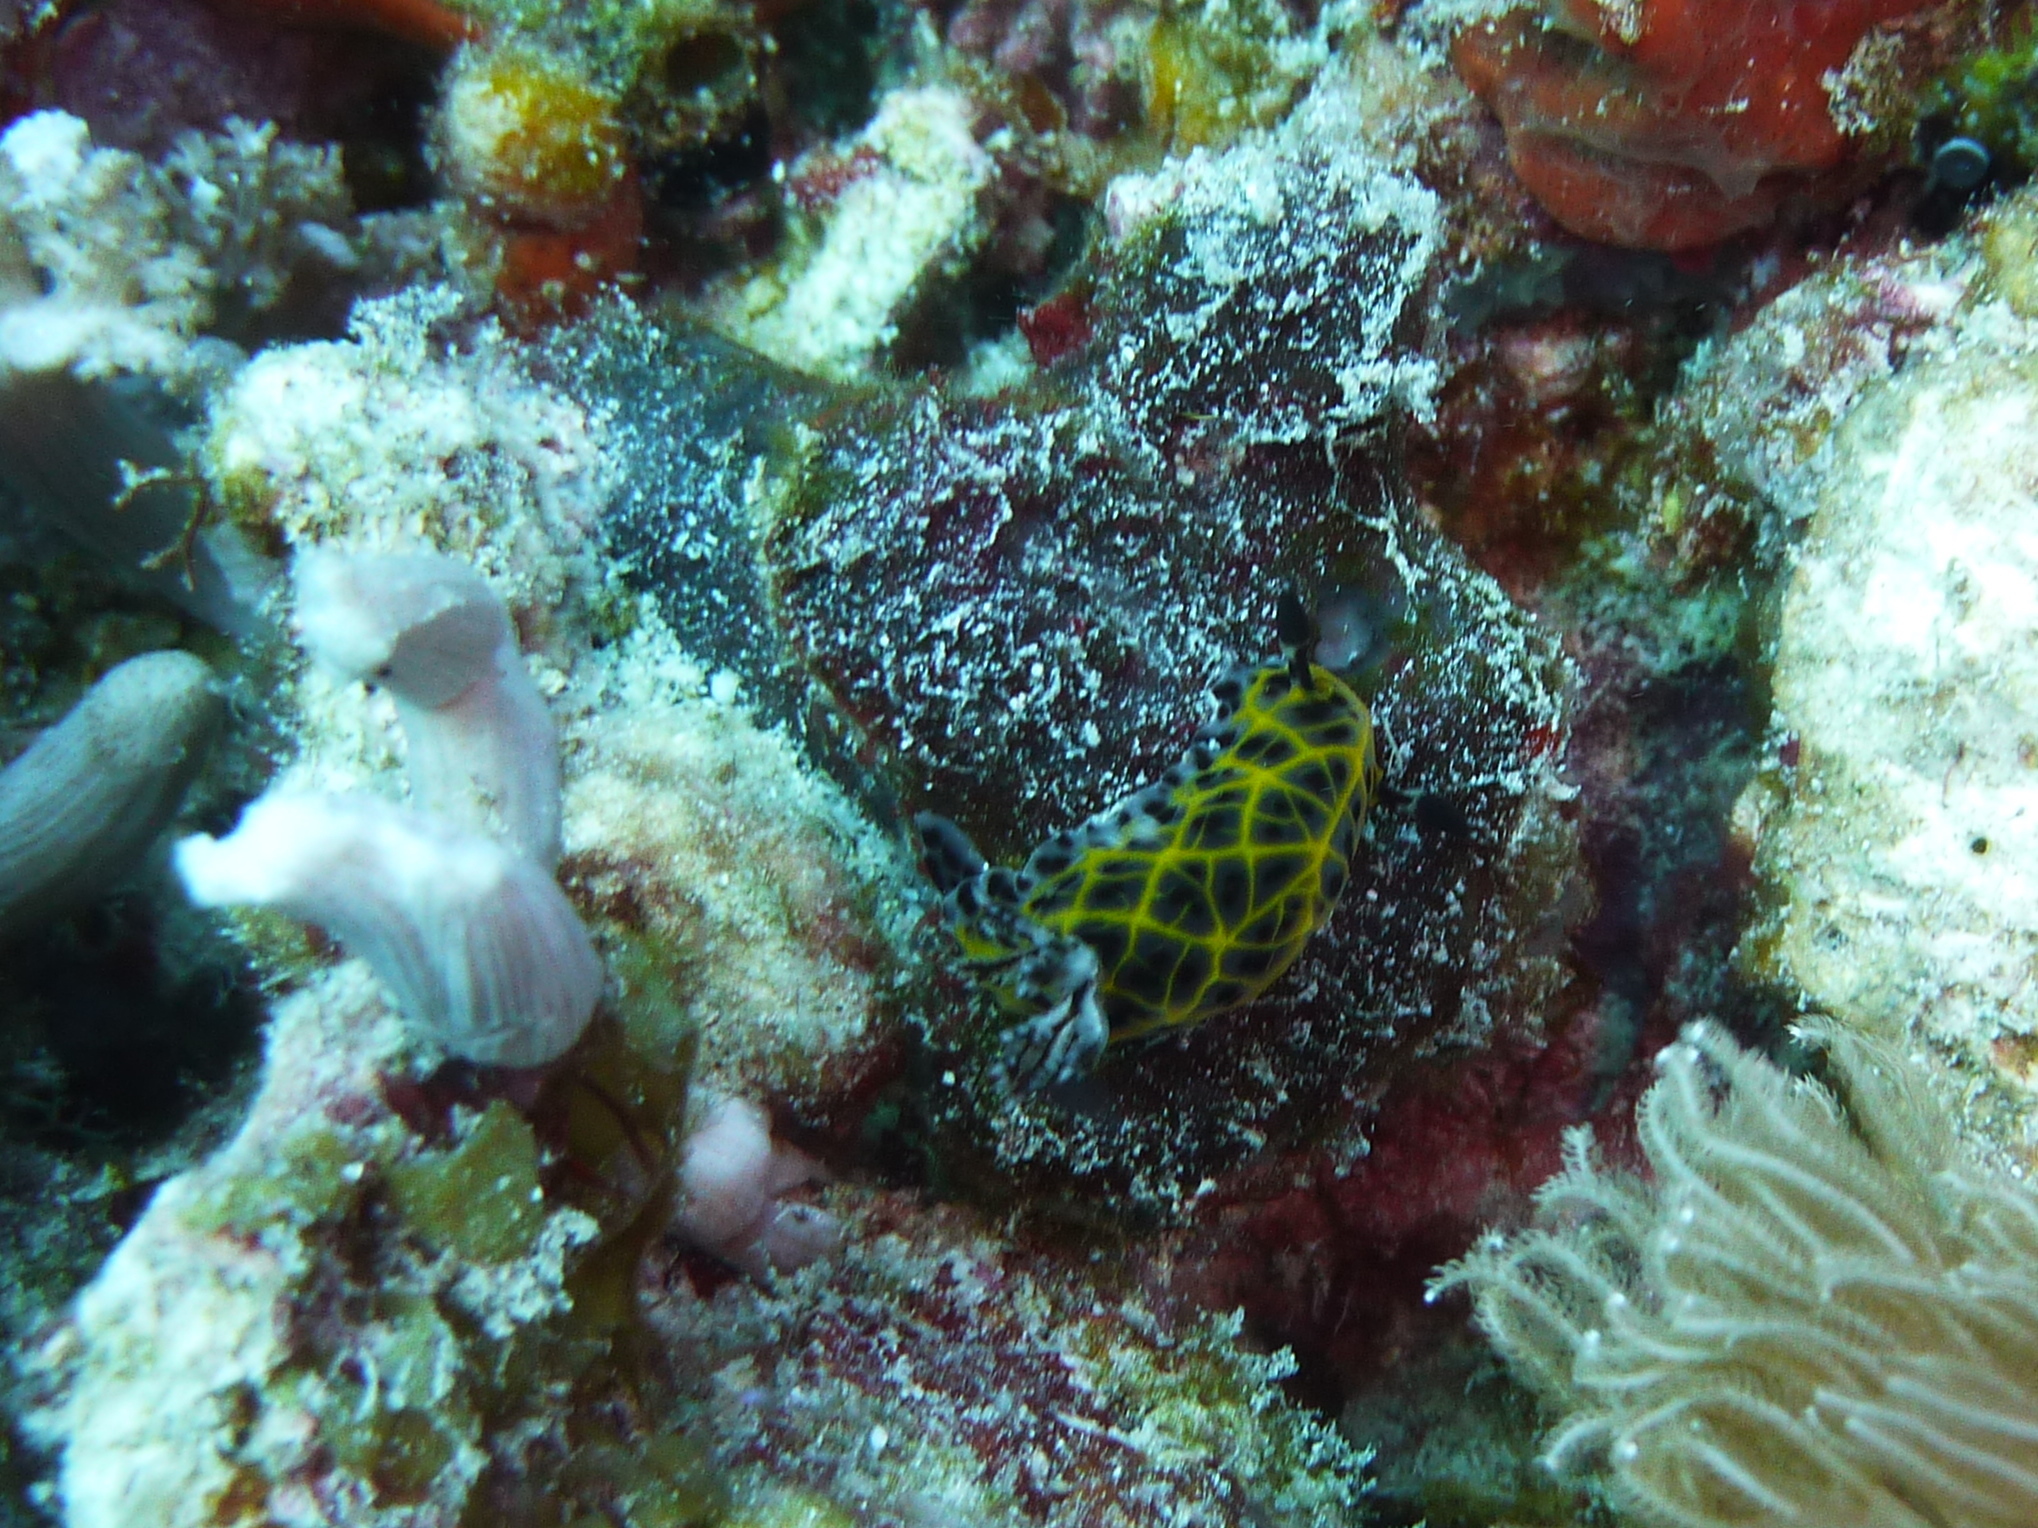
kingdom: Animalia
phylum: Mollusca
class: Gastropoda
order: Nudibranchia
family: Discodorididae
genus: Halgerda
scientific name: Halgerda wasinensis
